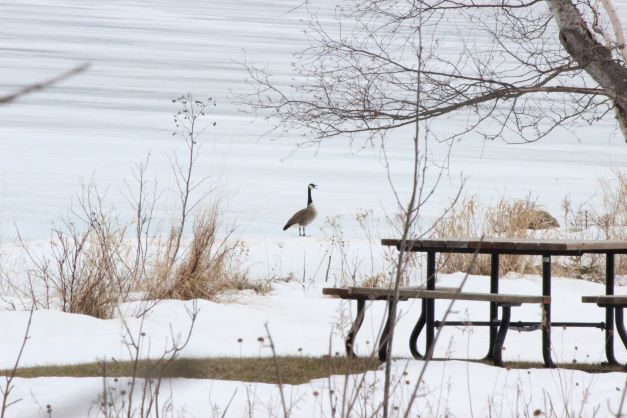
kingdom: Animalia
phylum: Chordata
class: Aves
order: Anseriformes
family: Anatidae
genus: Branta
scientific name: Branta canadensis
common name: Canada goose
